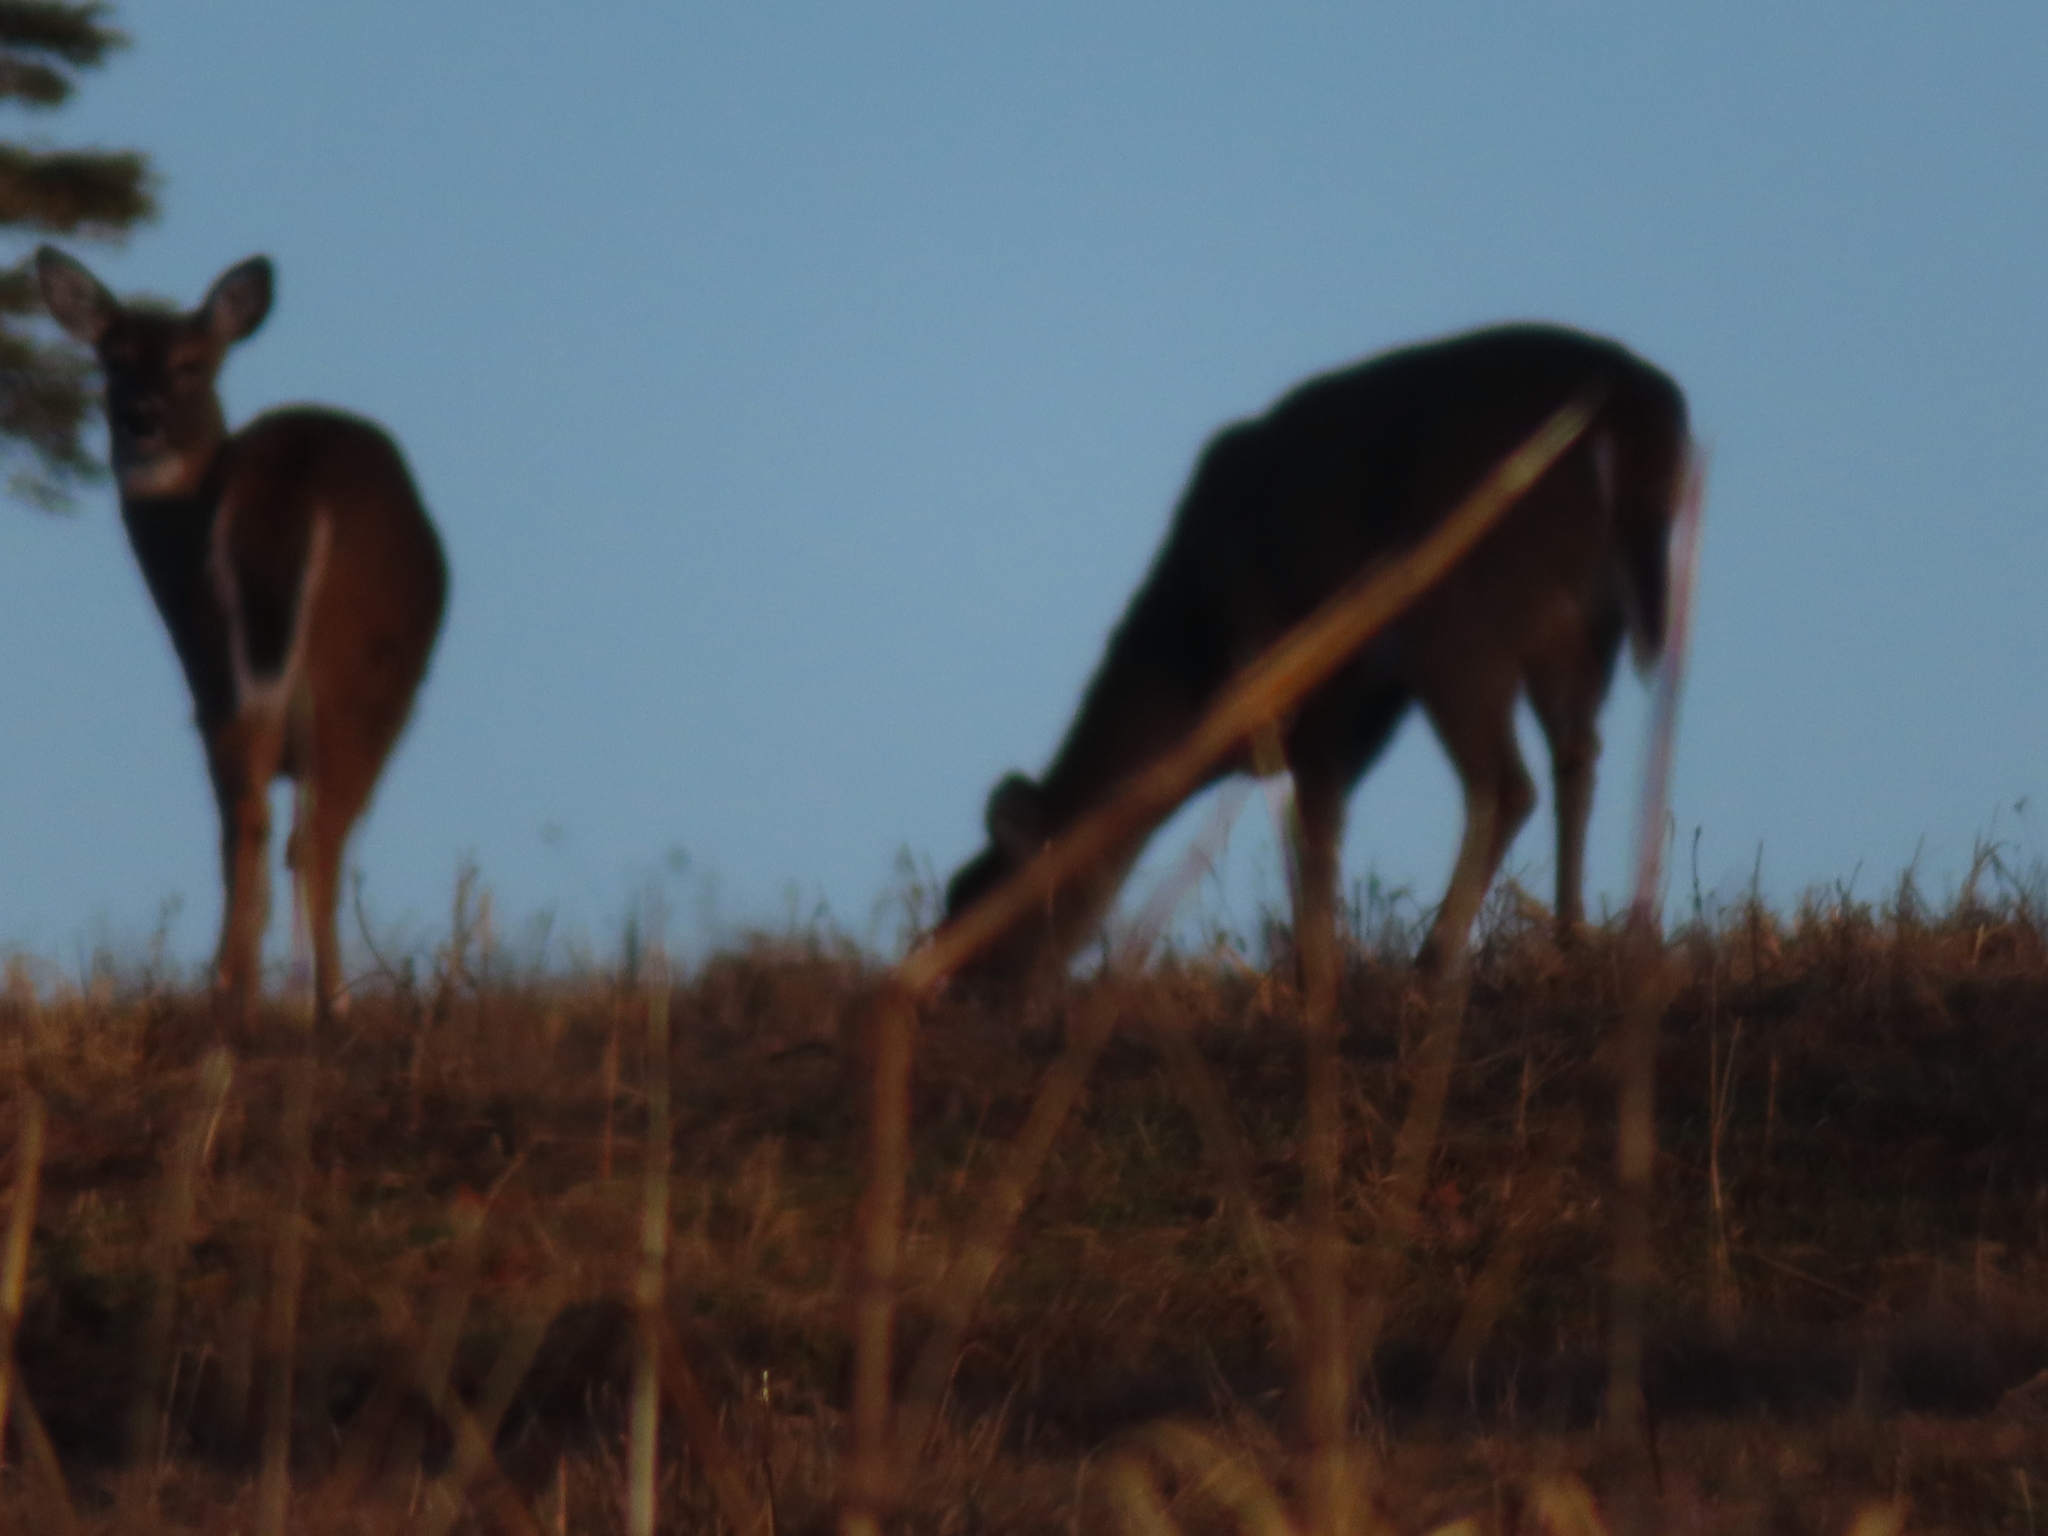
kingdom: Animalia
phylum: Chordata
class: Mammalia
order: Artiodactyla
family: Cervidae
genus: Odocoileus
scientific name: Odocoileus virginianus
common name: White-tailed deer
